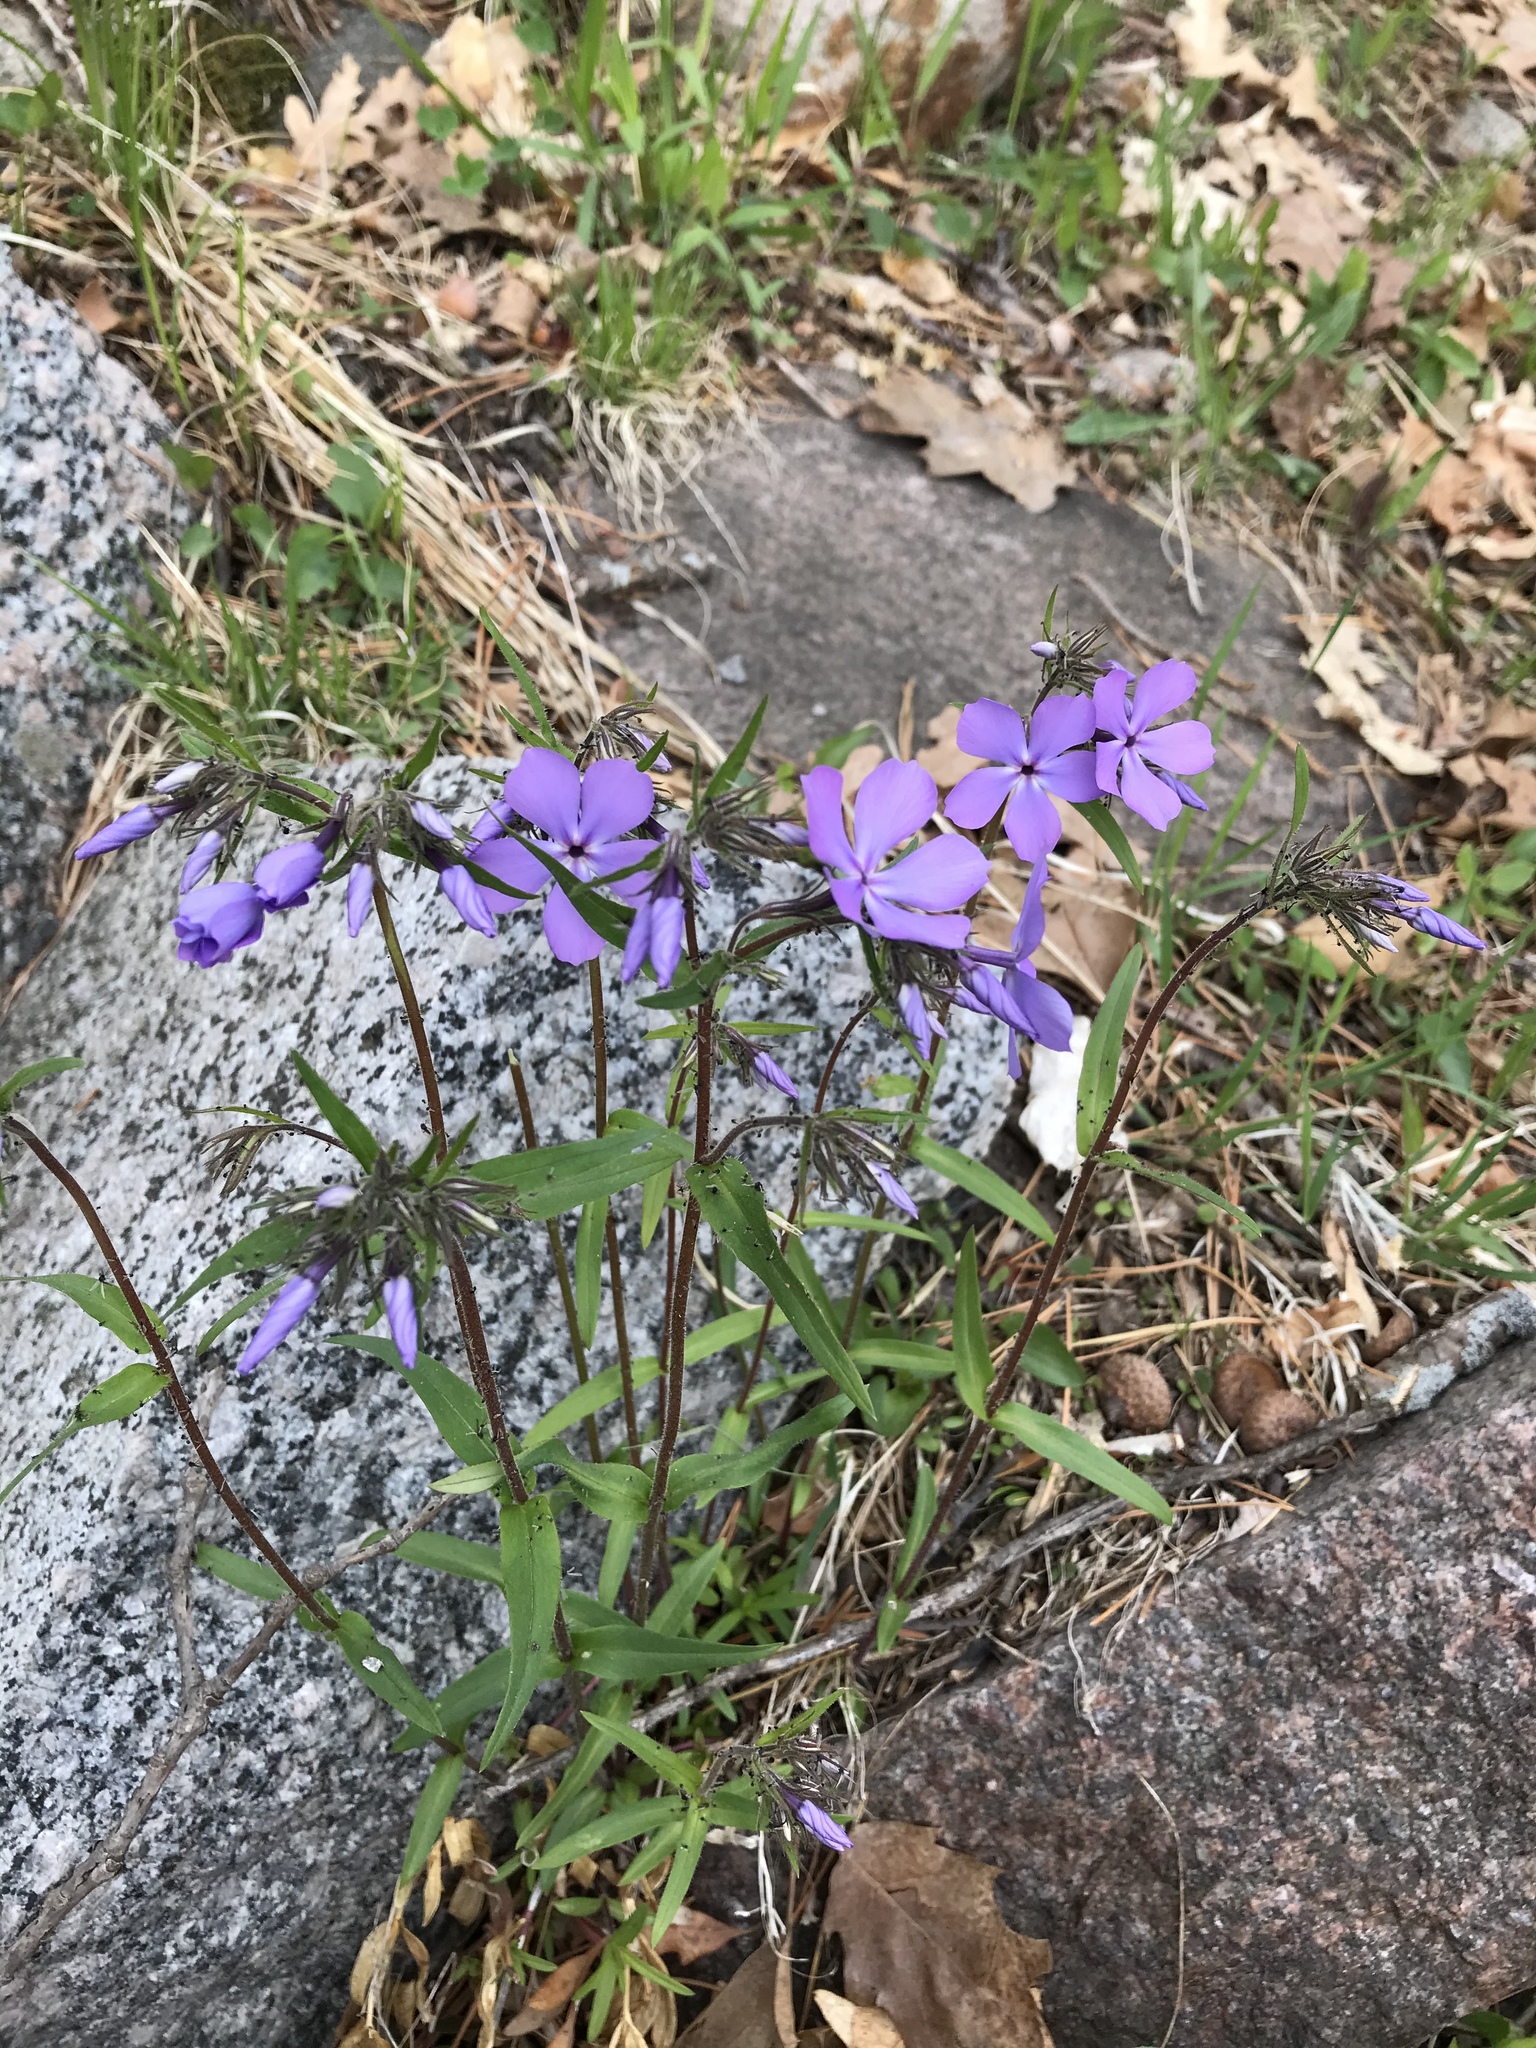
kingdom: Plantae
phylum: Tracheophyta
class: Magnoliopsida
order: Ericales
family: Polemoniaceae
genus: Phlox
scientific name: Phlox divaricata
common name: Blue phlox
